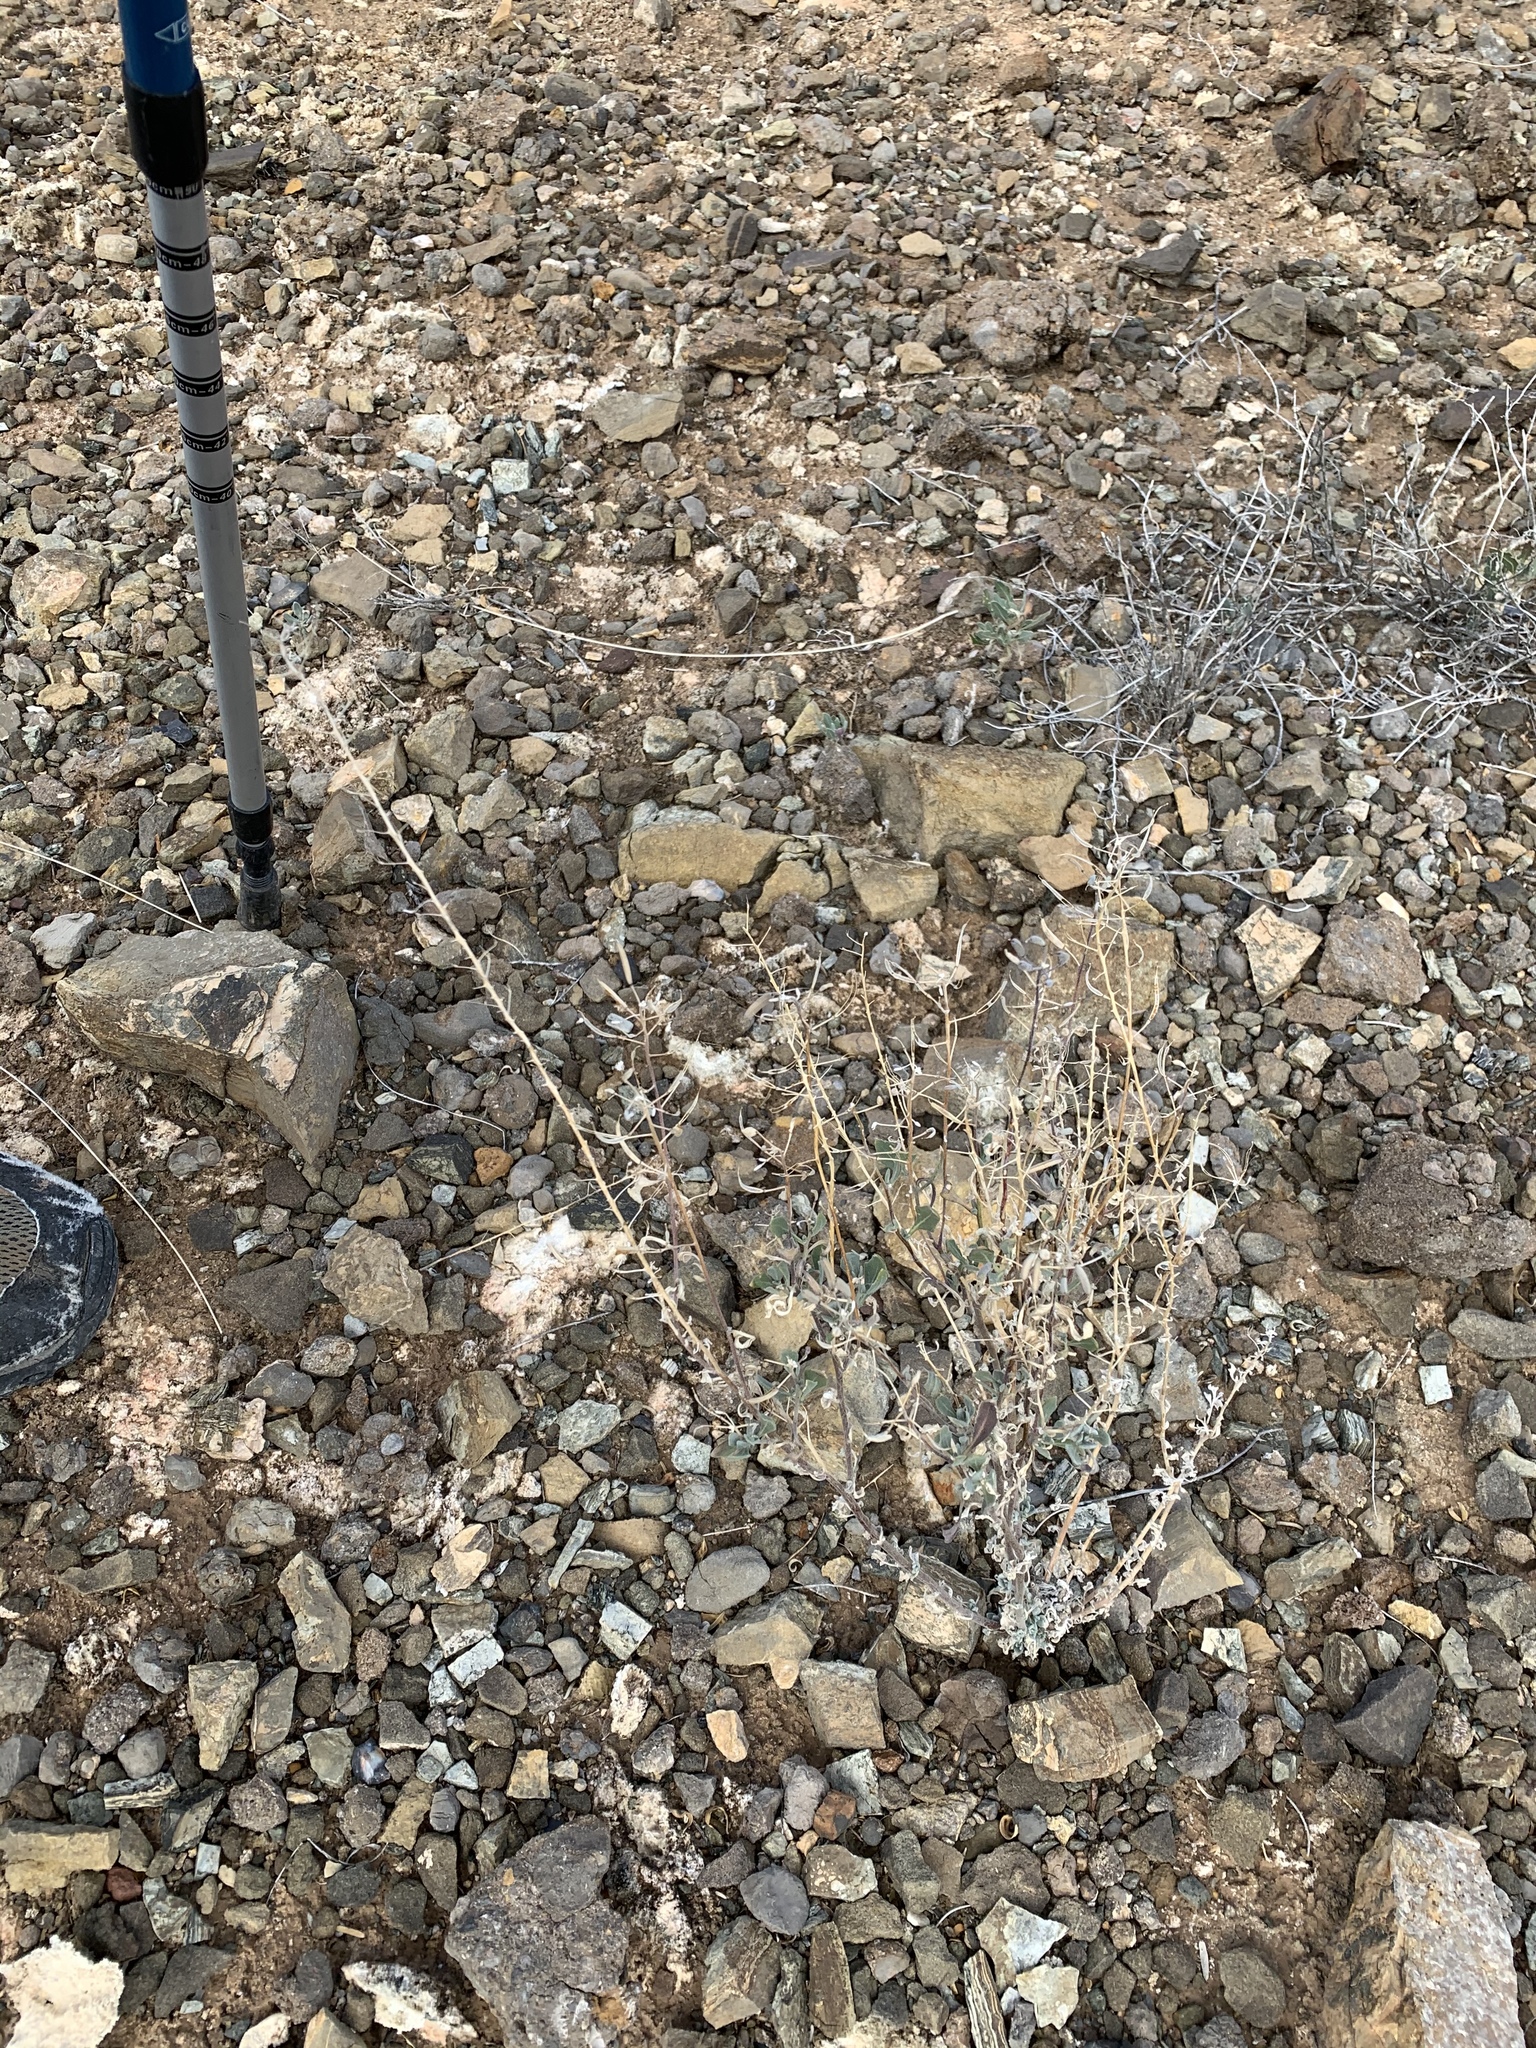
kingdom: Plantae
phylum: Tracheophyta
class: Magnoliopsida
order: Brassicales
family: Brassicaceae
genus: Nerisyrenia
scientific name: Nerisyrenia camporum
